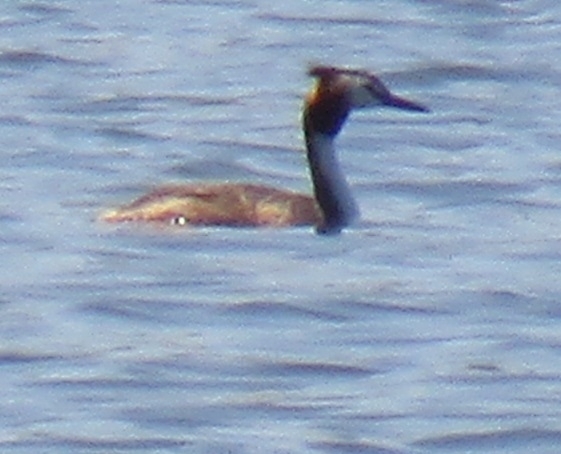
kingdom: Animalia
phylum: Chordata
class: Aves
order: Podicipediformes
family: Podicipedidae
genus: Podiceps
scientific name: Podiceps cristatus
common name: Great crested grebe
